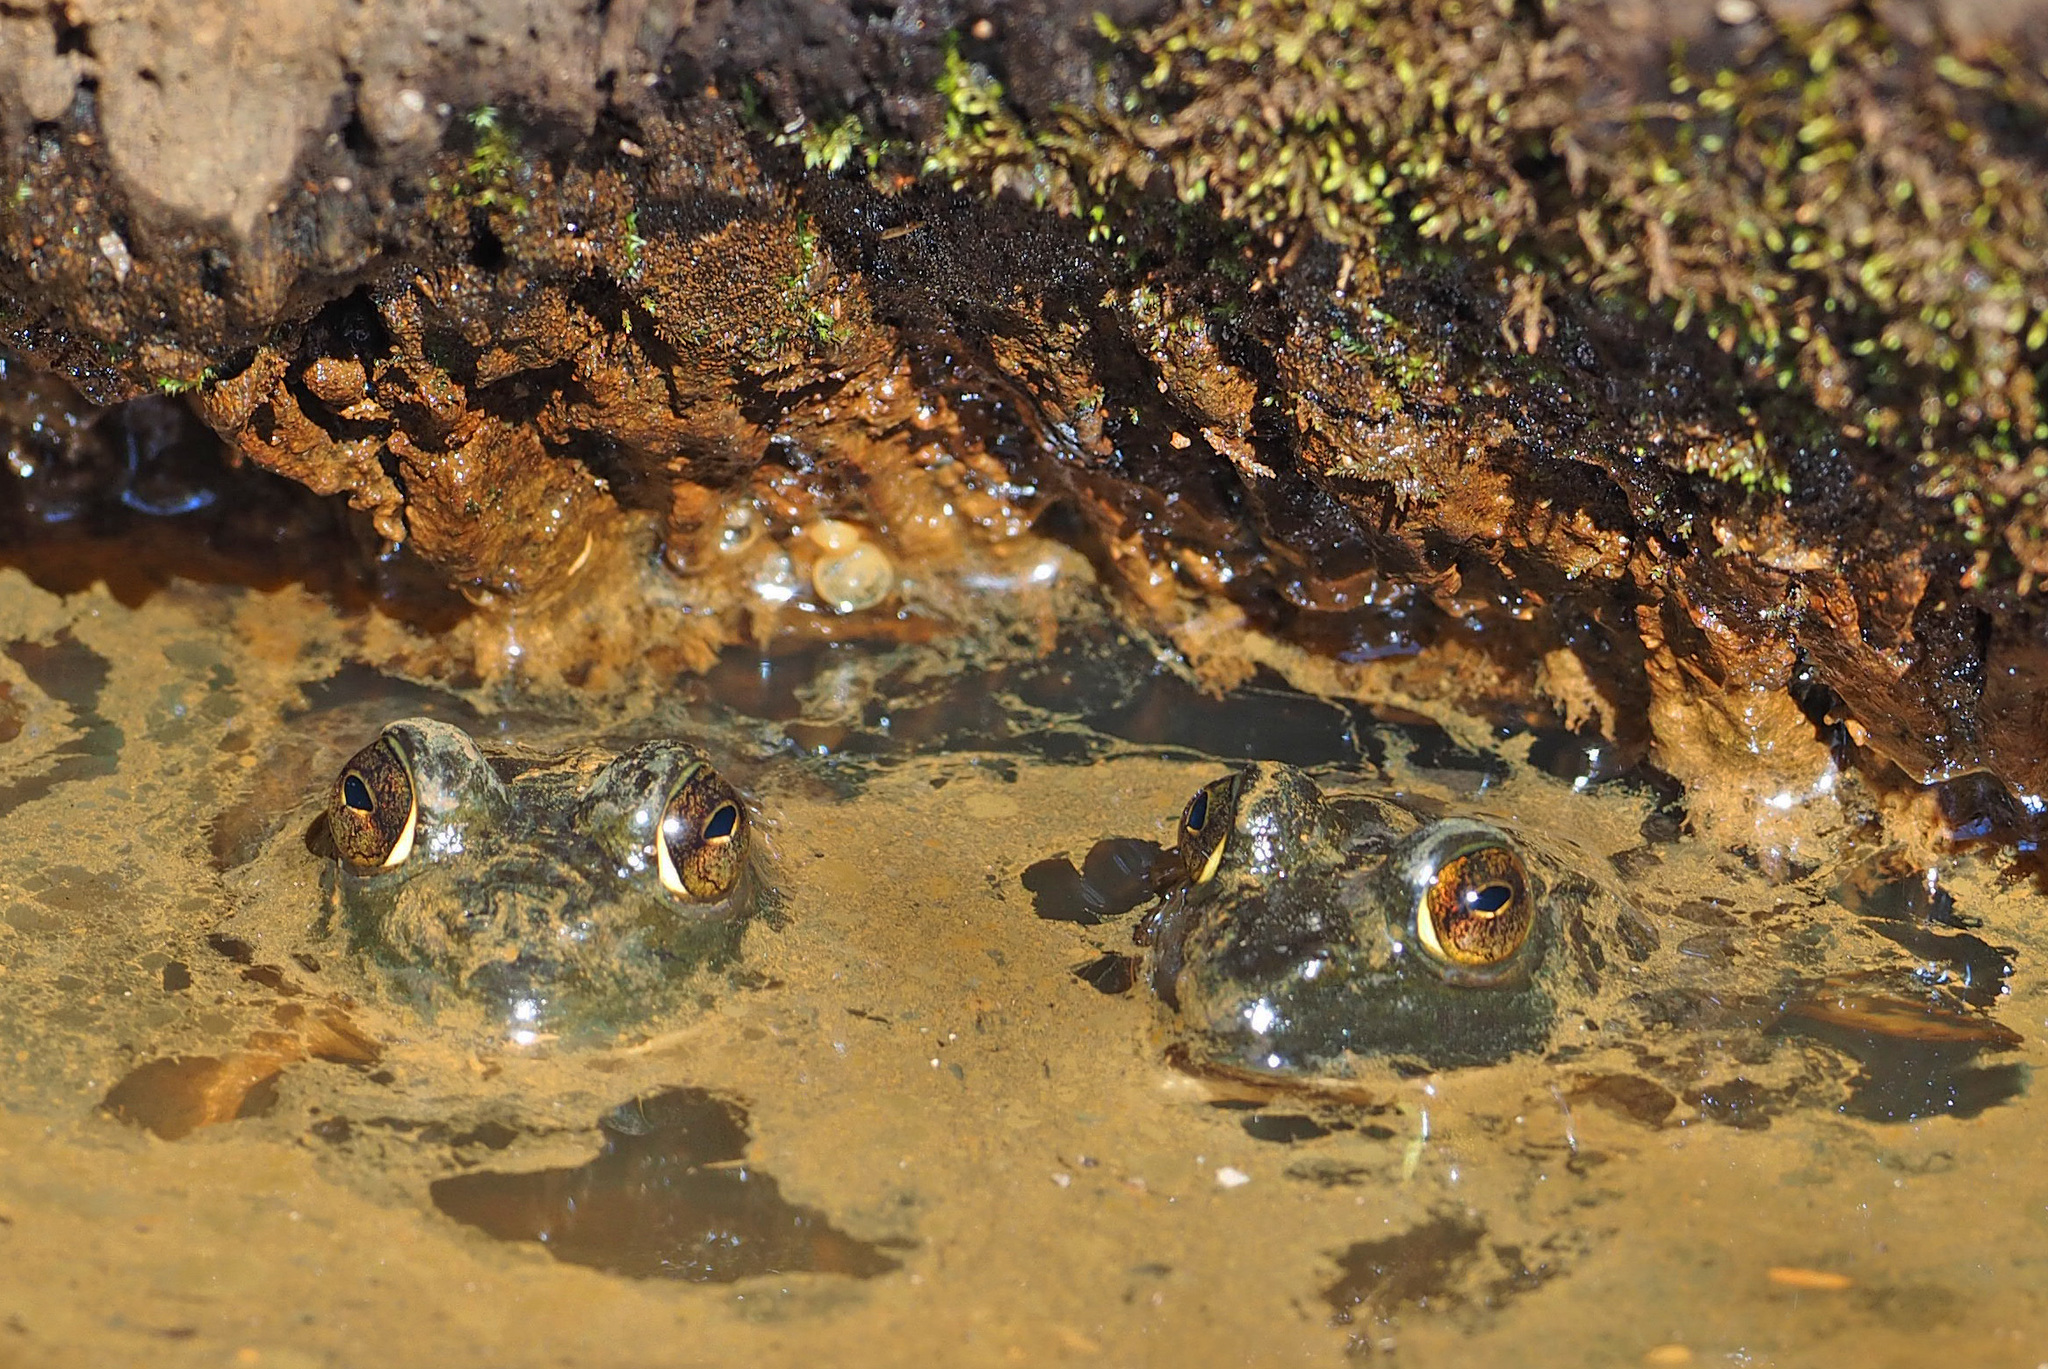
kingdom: Animalia
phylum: Chordata
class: Amphibia
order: Anura
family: Ranidae
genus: Lithobates
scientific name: Lithobates catesbeianus
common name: American bullfrog
